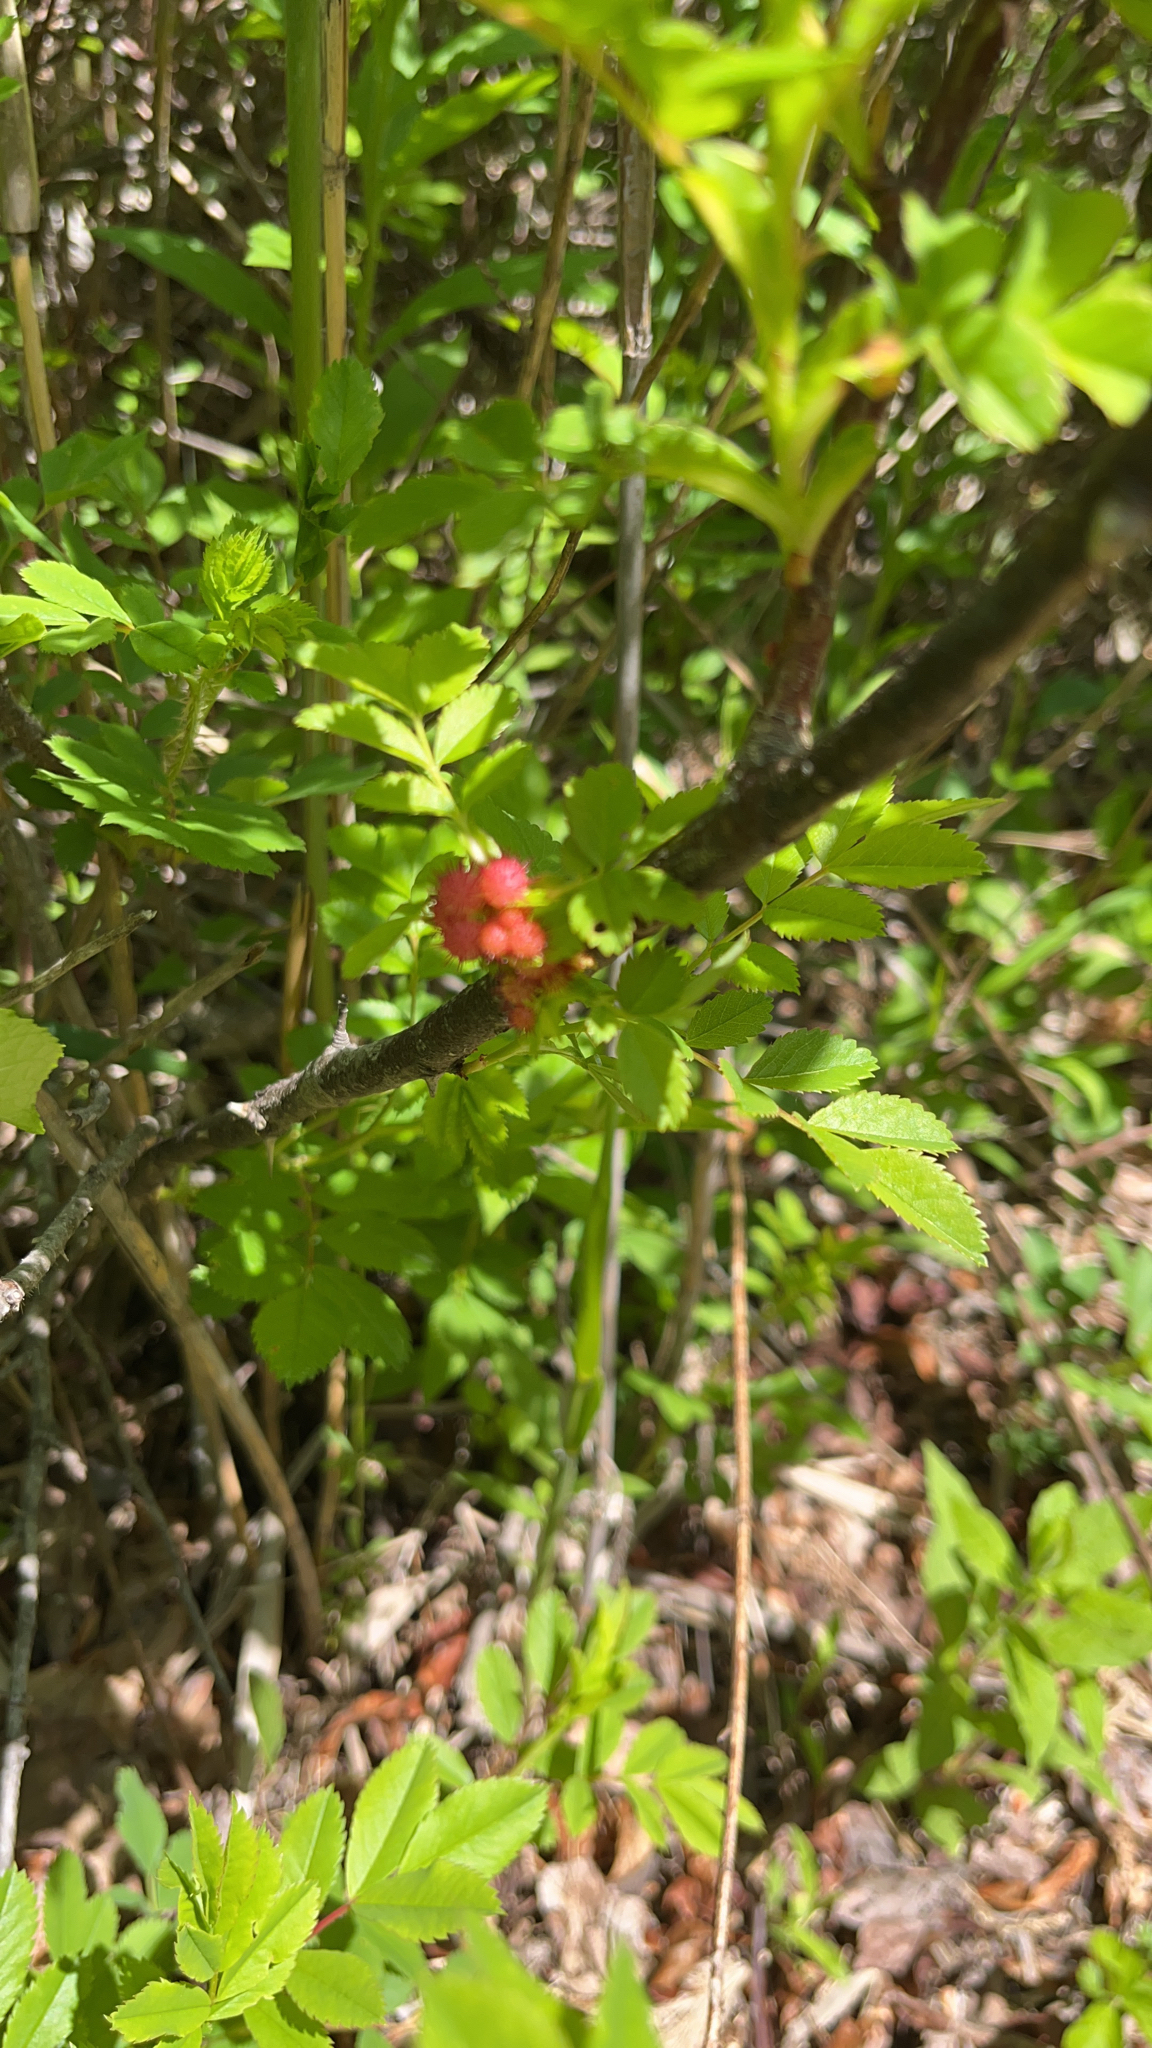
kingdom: Animalia
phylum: Arthropoda
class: Insecta
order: Hymenoptera
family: Cynipidae
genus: Diplolepis
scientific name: Diplolepis polita
